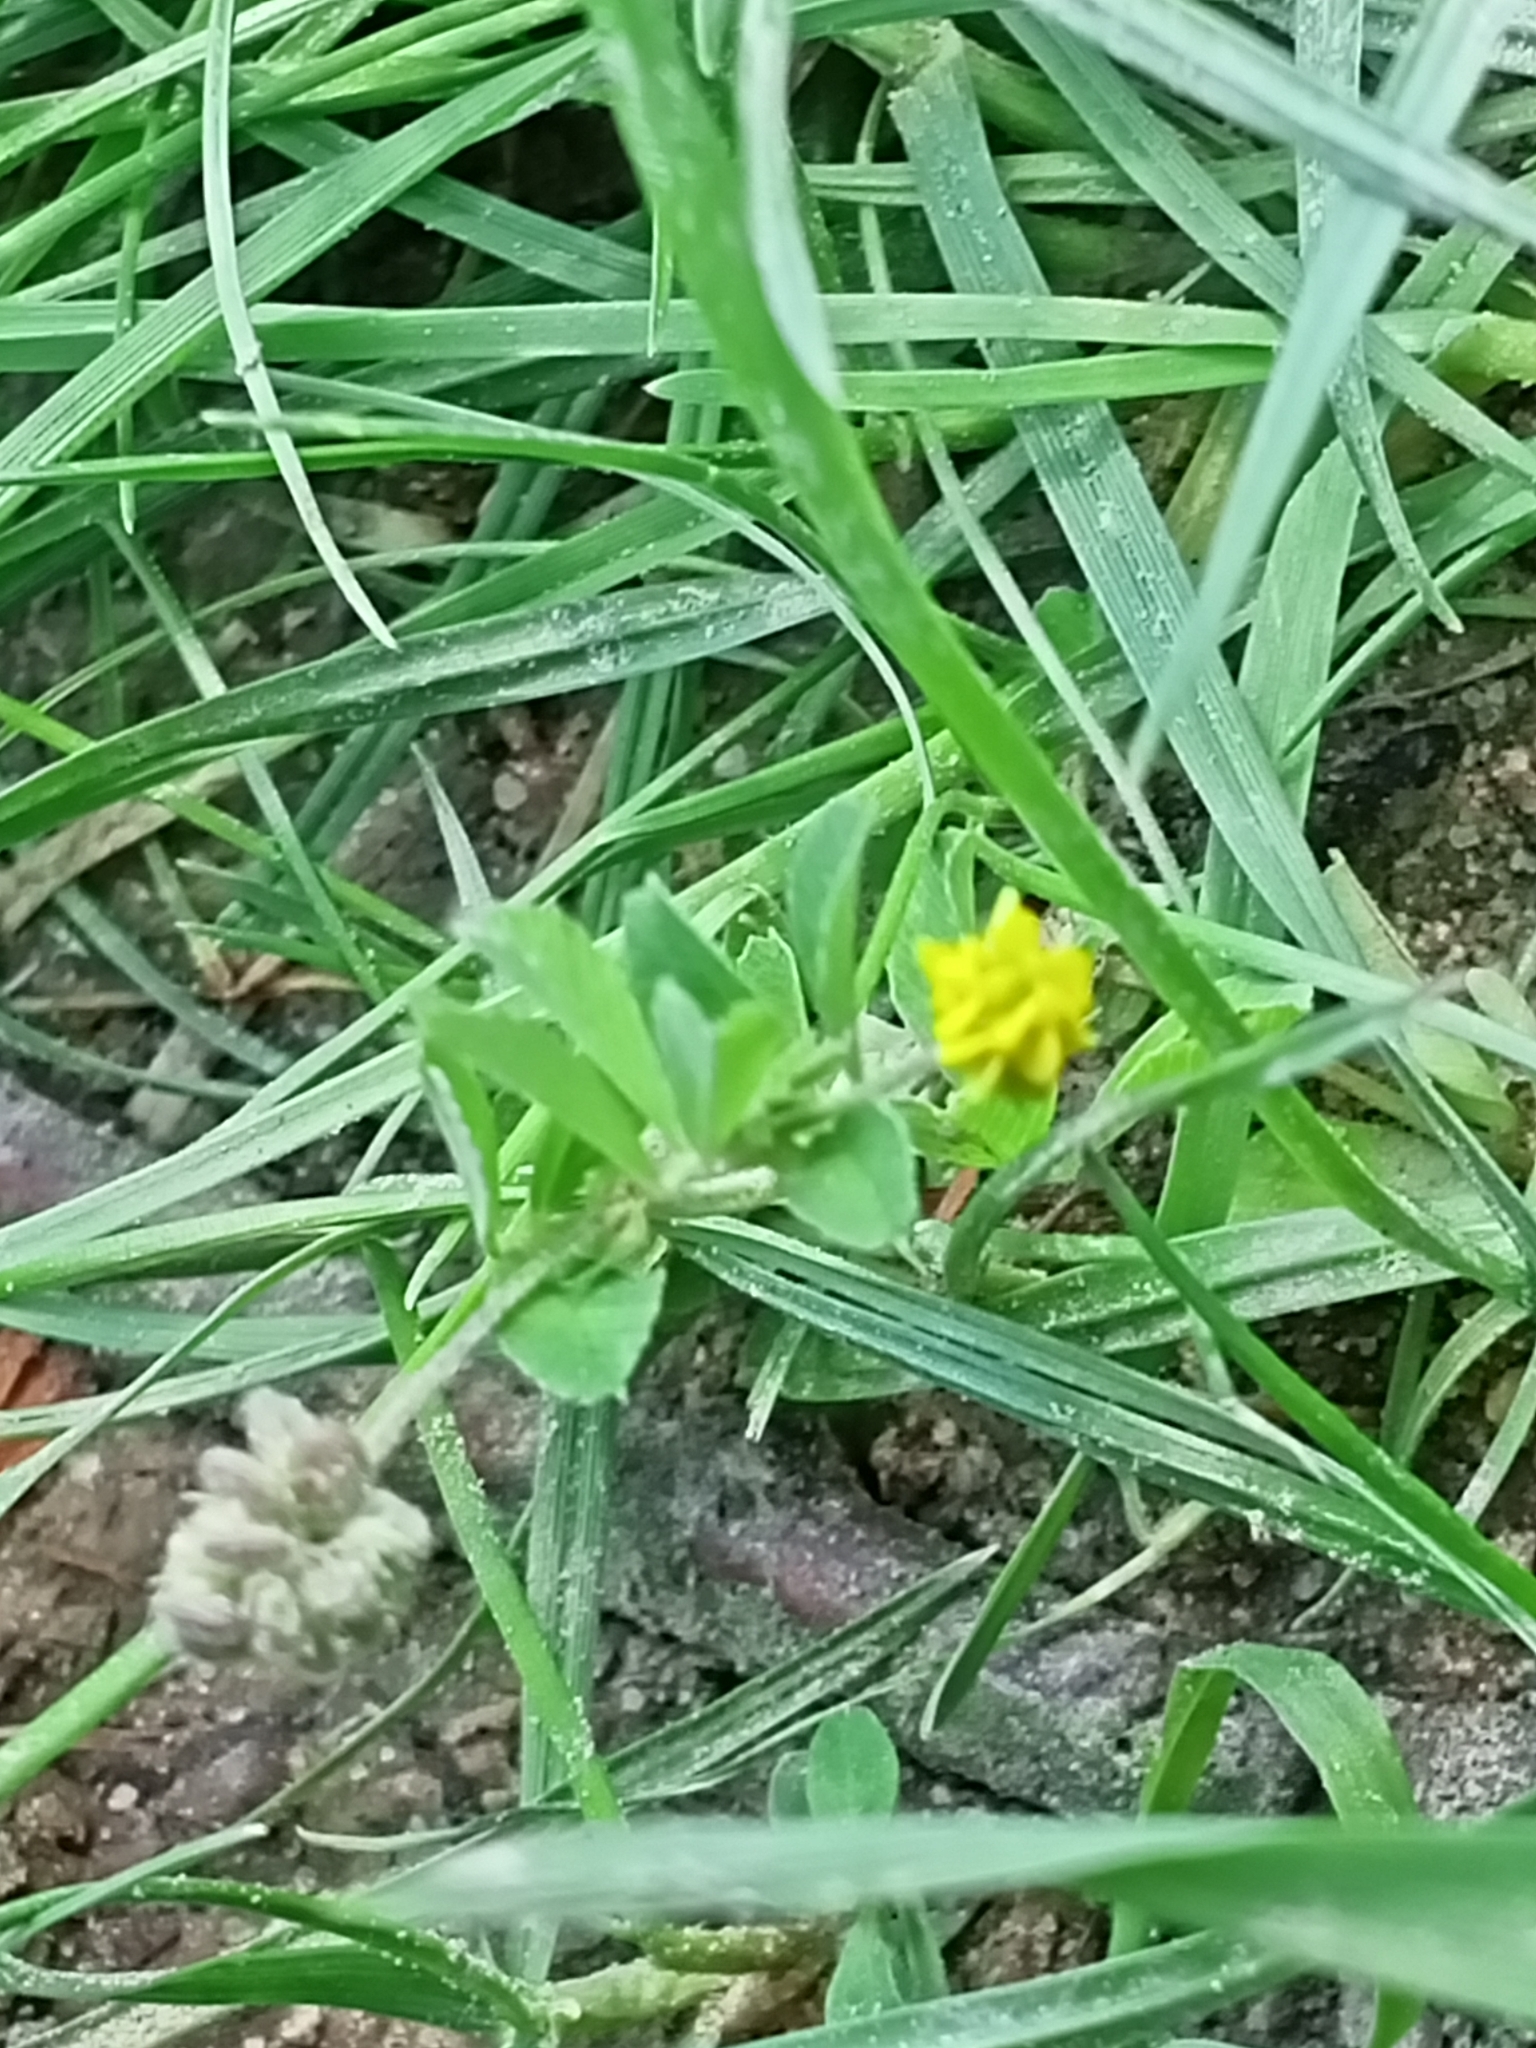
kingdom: Plantae
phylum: Tracheophyta
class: Magnoliopsida
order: Fabales
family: Fabaceae
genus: Medicago
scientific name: Medicago lupulina
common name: Black medick
